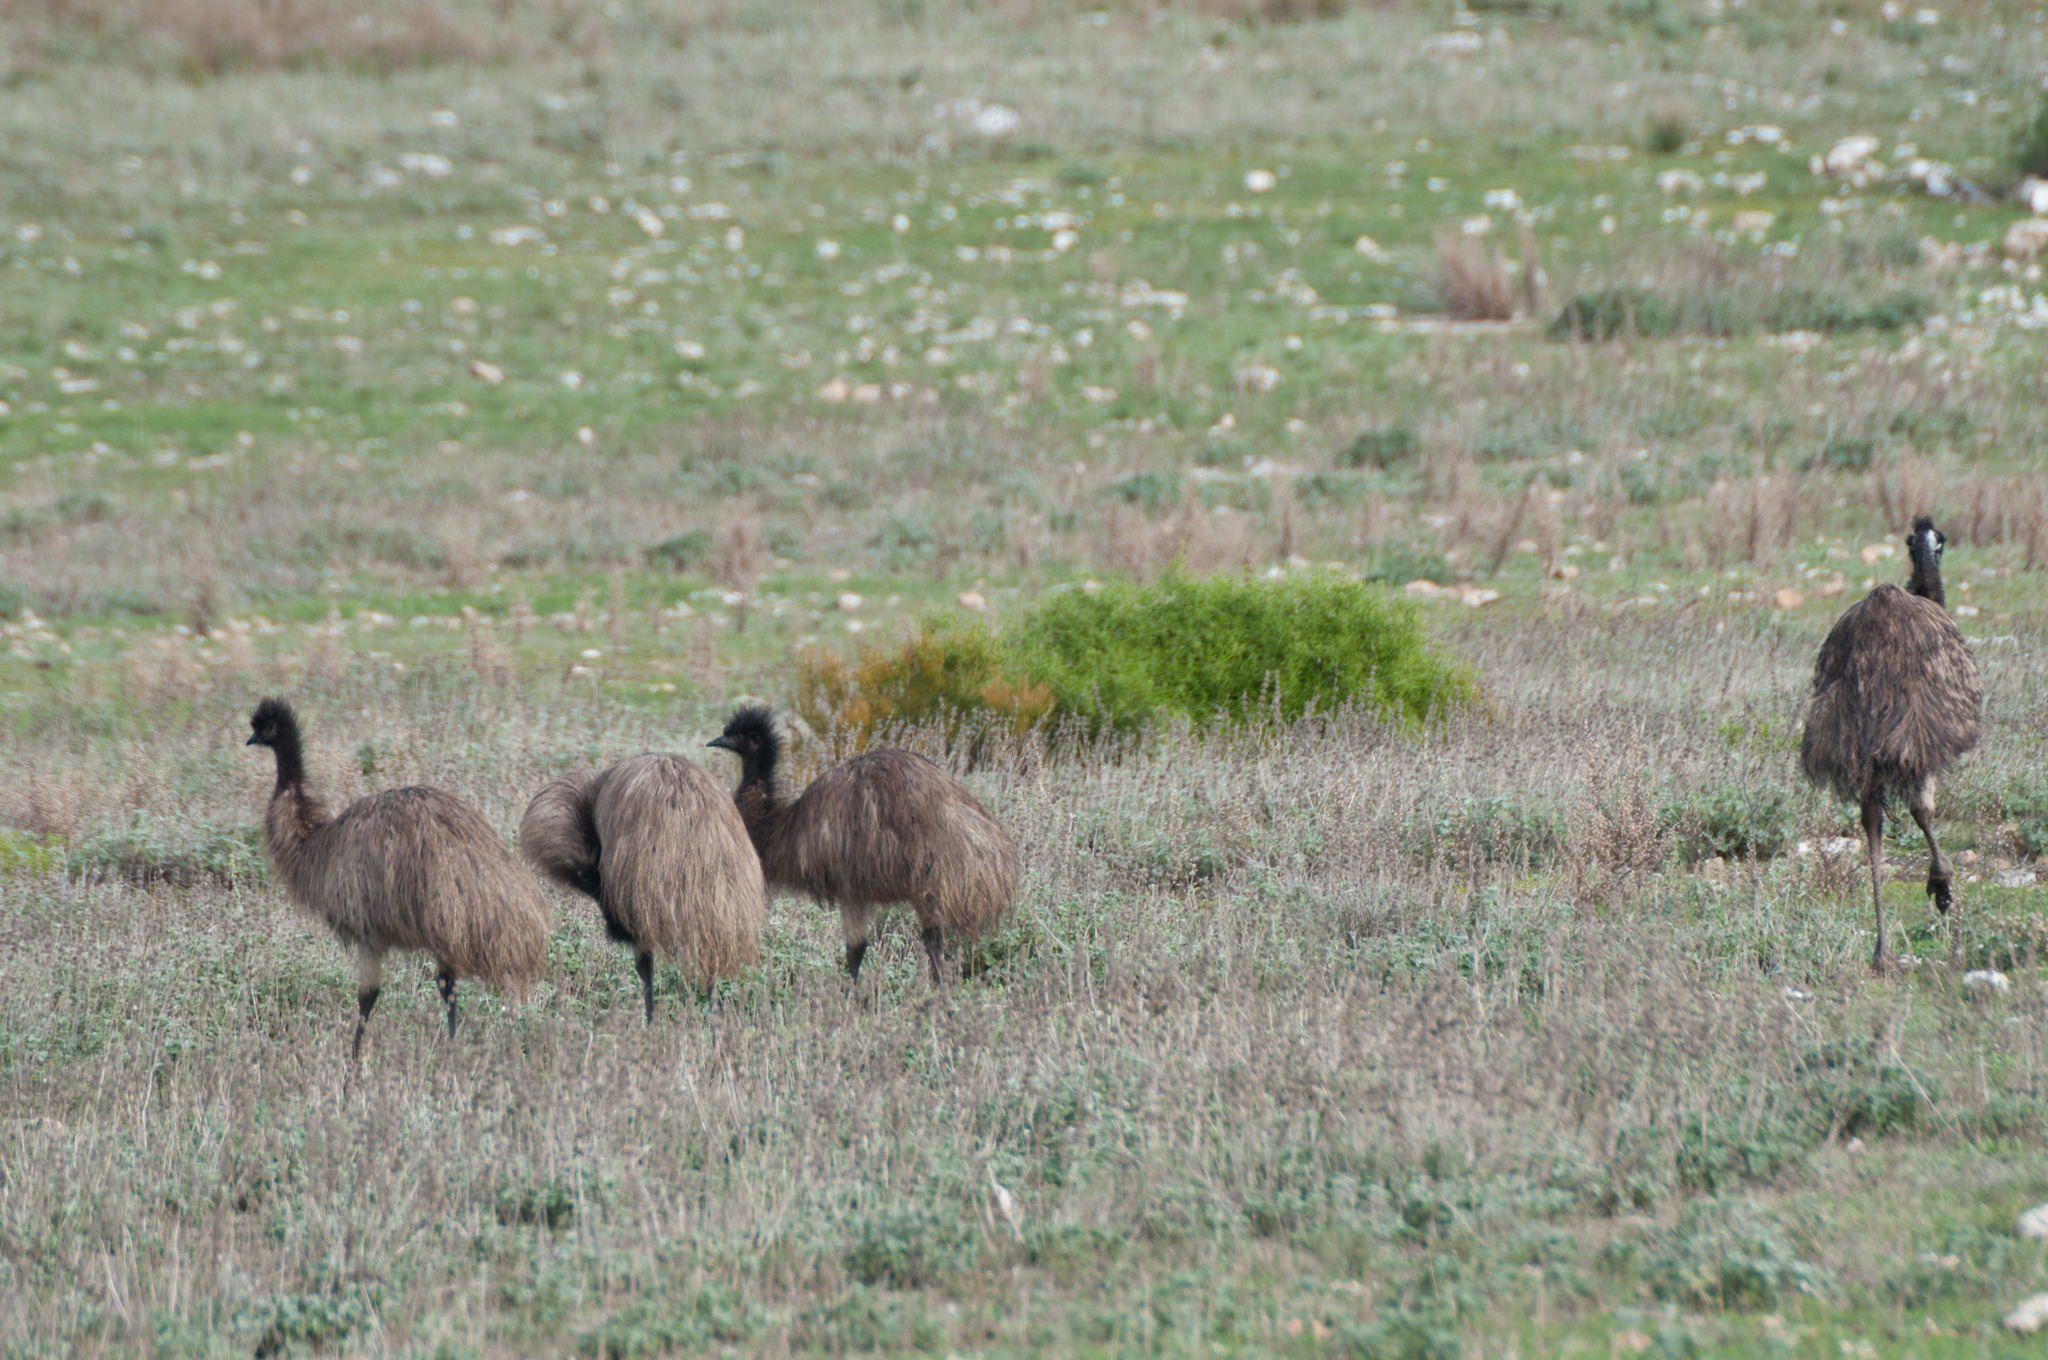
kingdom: Animalia
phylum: Chordata
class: Aves
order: Casuariiformes
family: Dromaiidae
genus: Dromaius
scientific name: Dromaius novaehollandiae
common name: Emu
